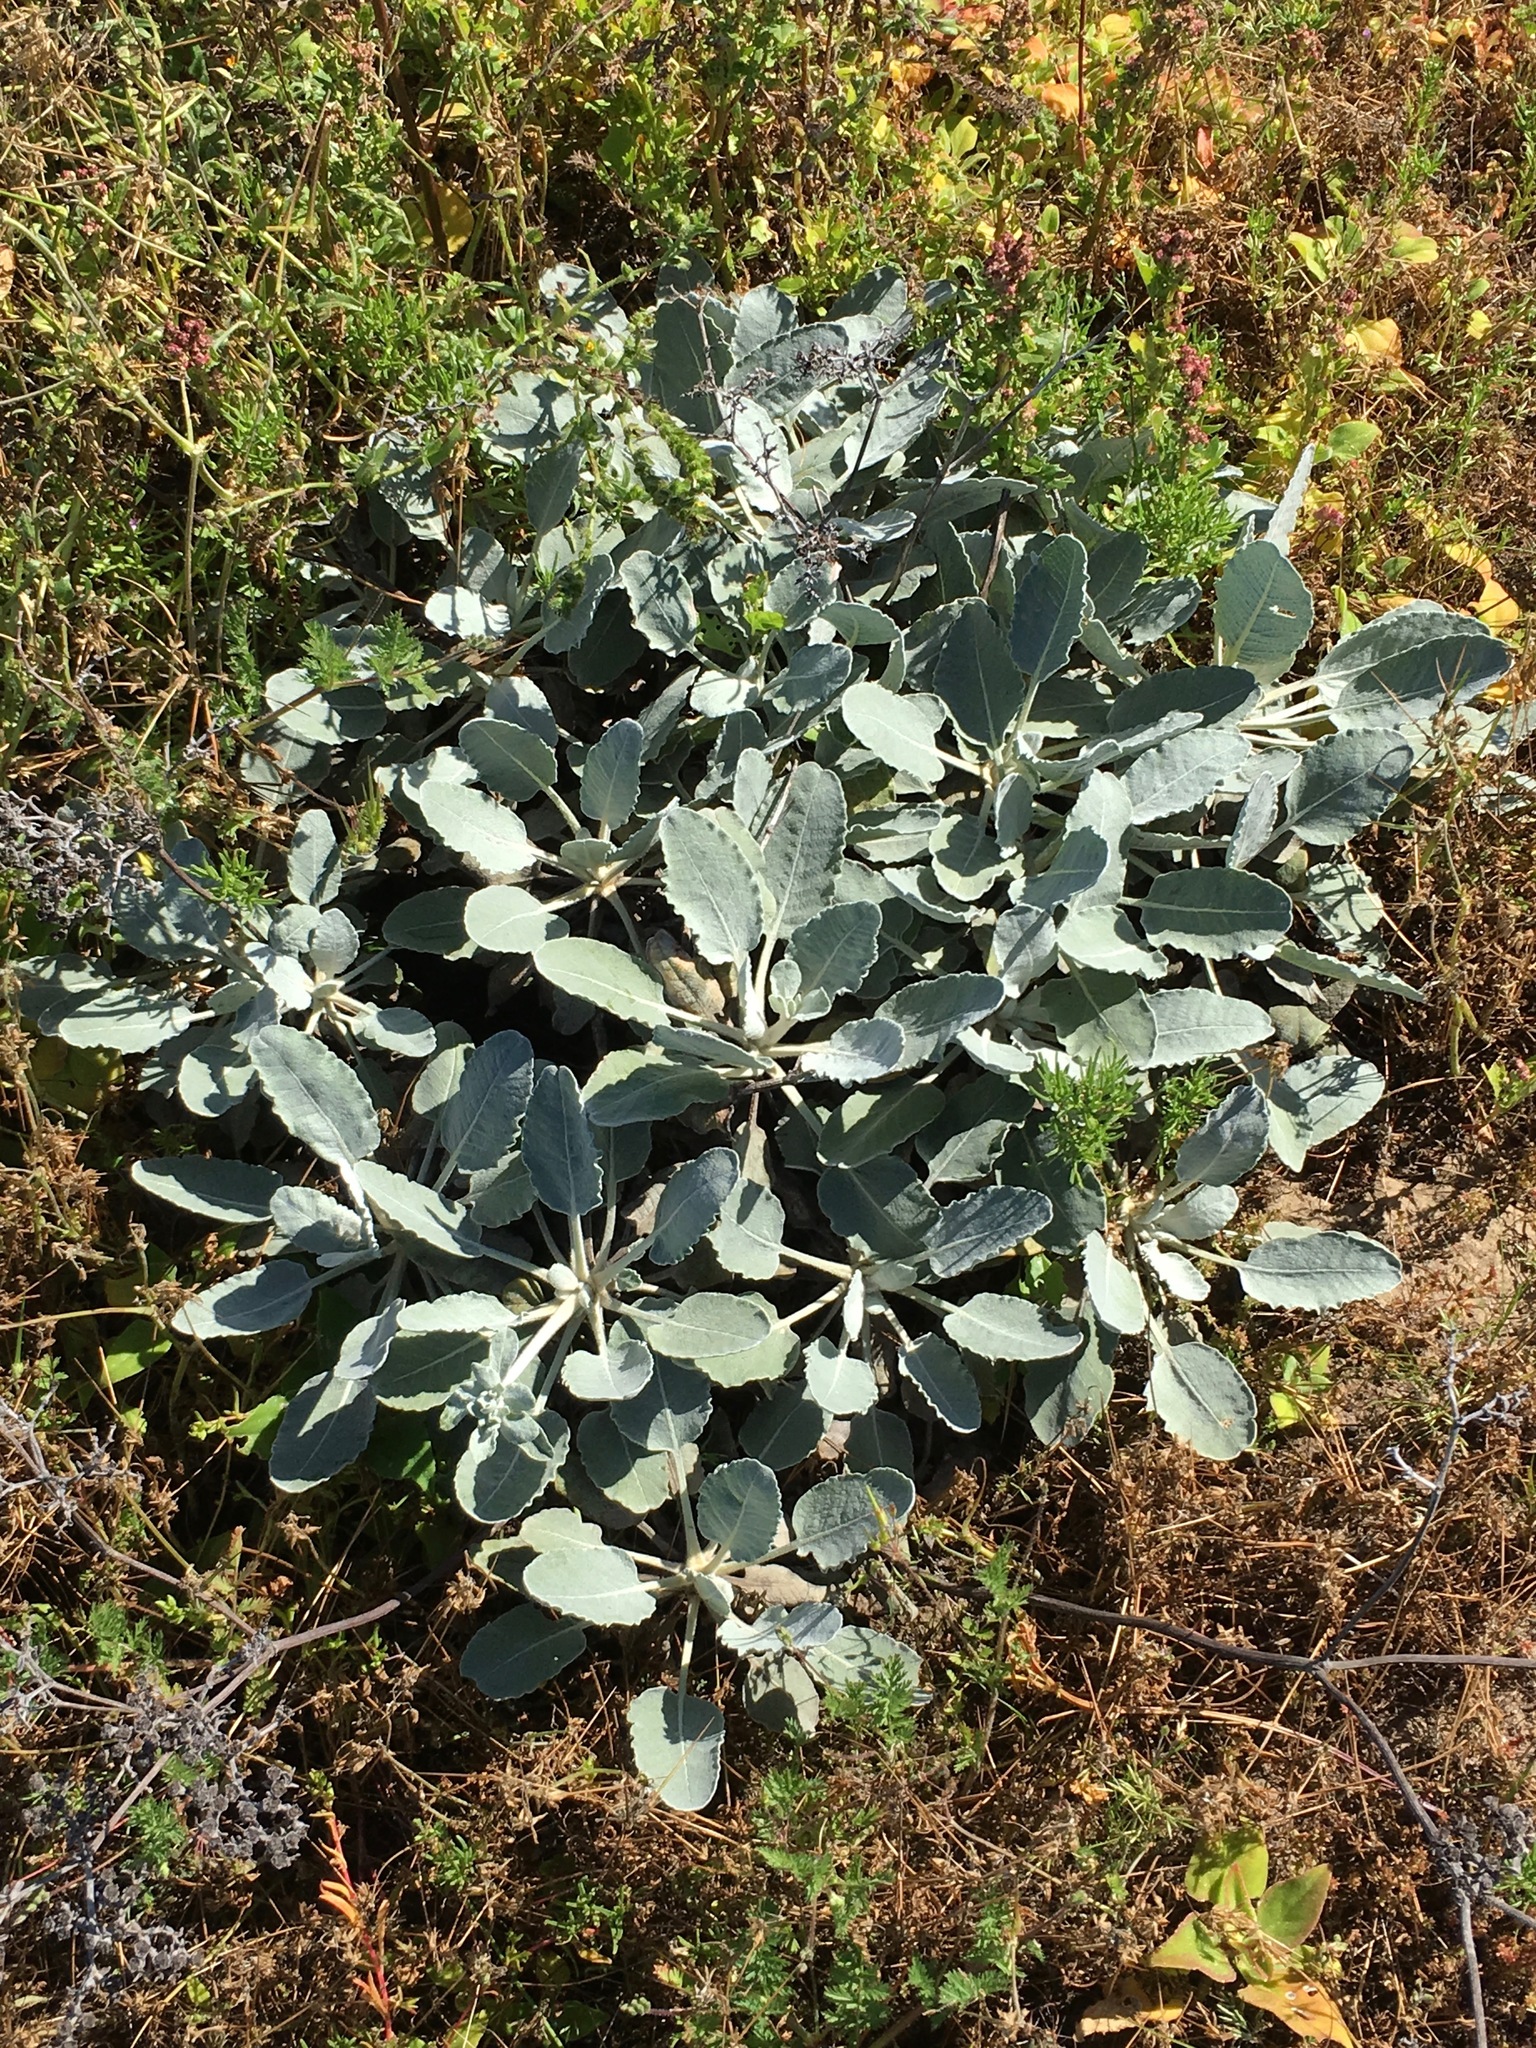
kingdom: Plantae
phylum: Tracheophyta
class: Magnoliopsida
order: Caryophyllales
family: Polygonaceae
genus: Eriogonum
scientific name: Eriogonum giganteum
